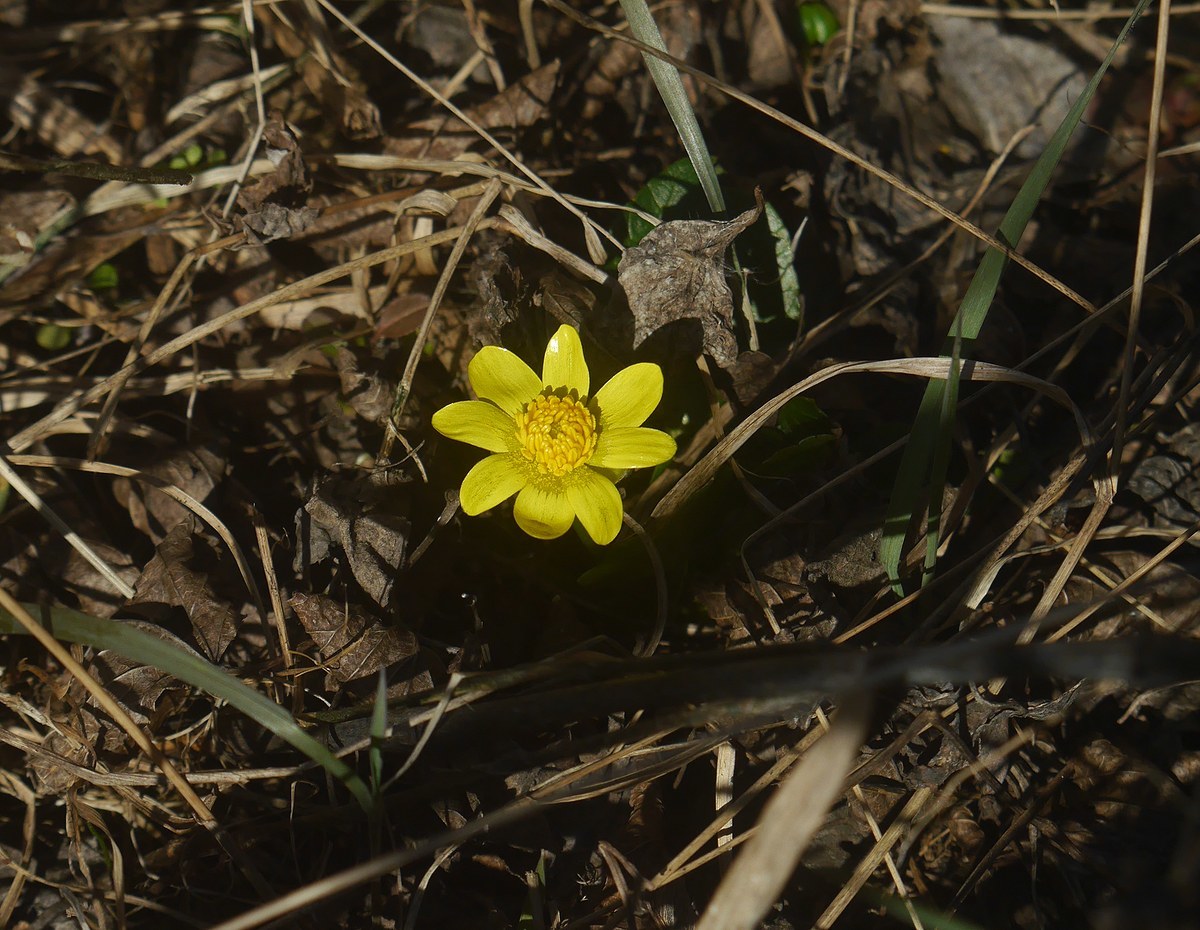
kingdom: Plantae
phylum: Tracheophyta
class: Magnoliopsida
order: Ranunculales
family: Ranunculaceae
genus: Ficaria
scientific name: Ficaria verna
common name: Lesser celandine
